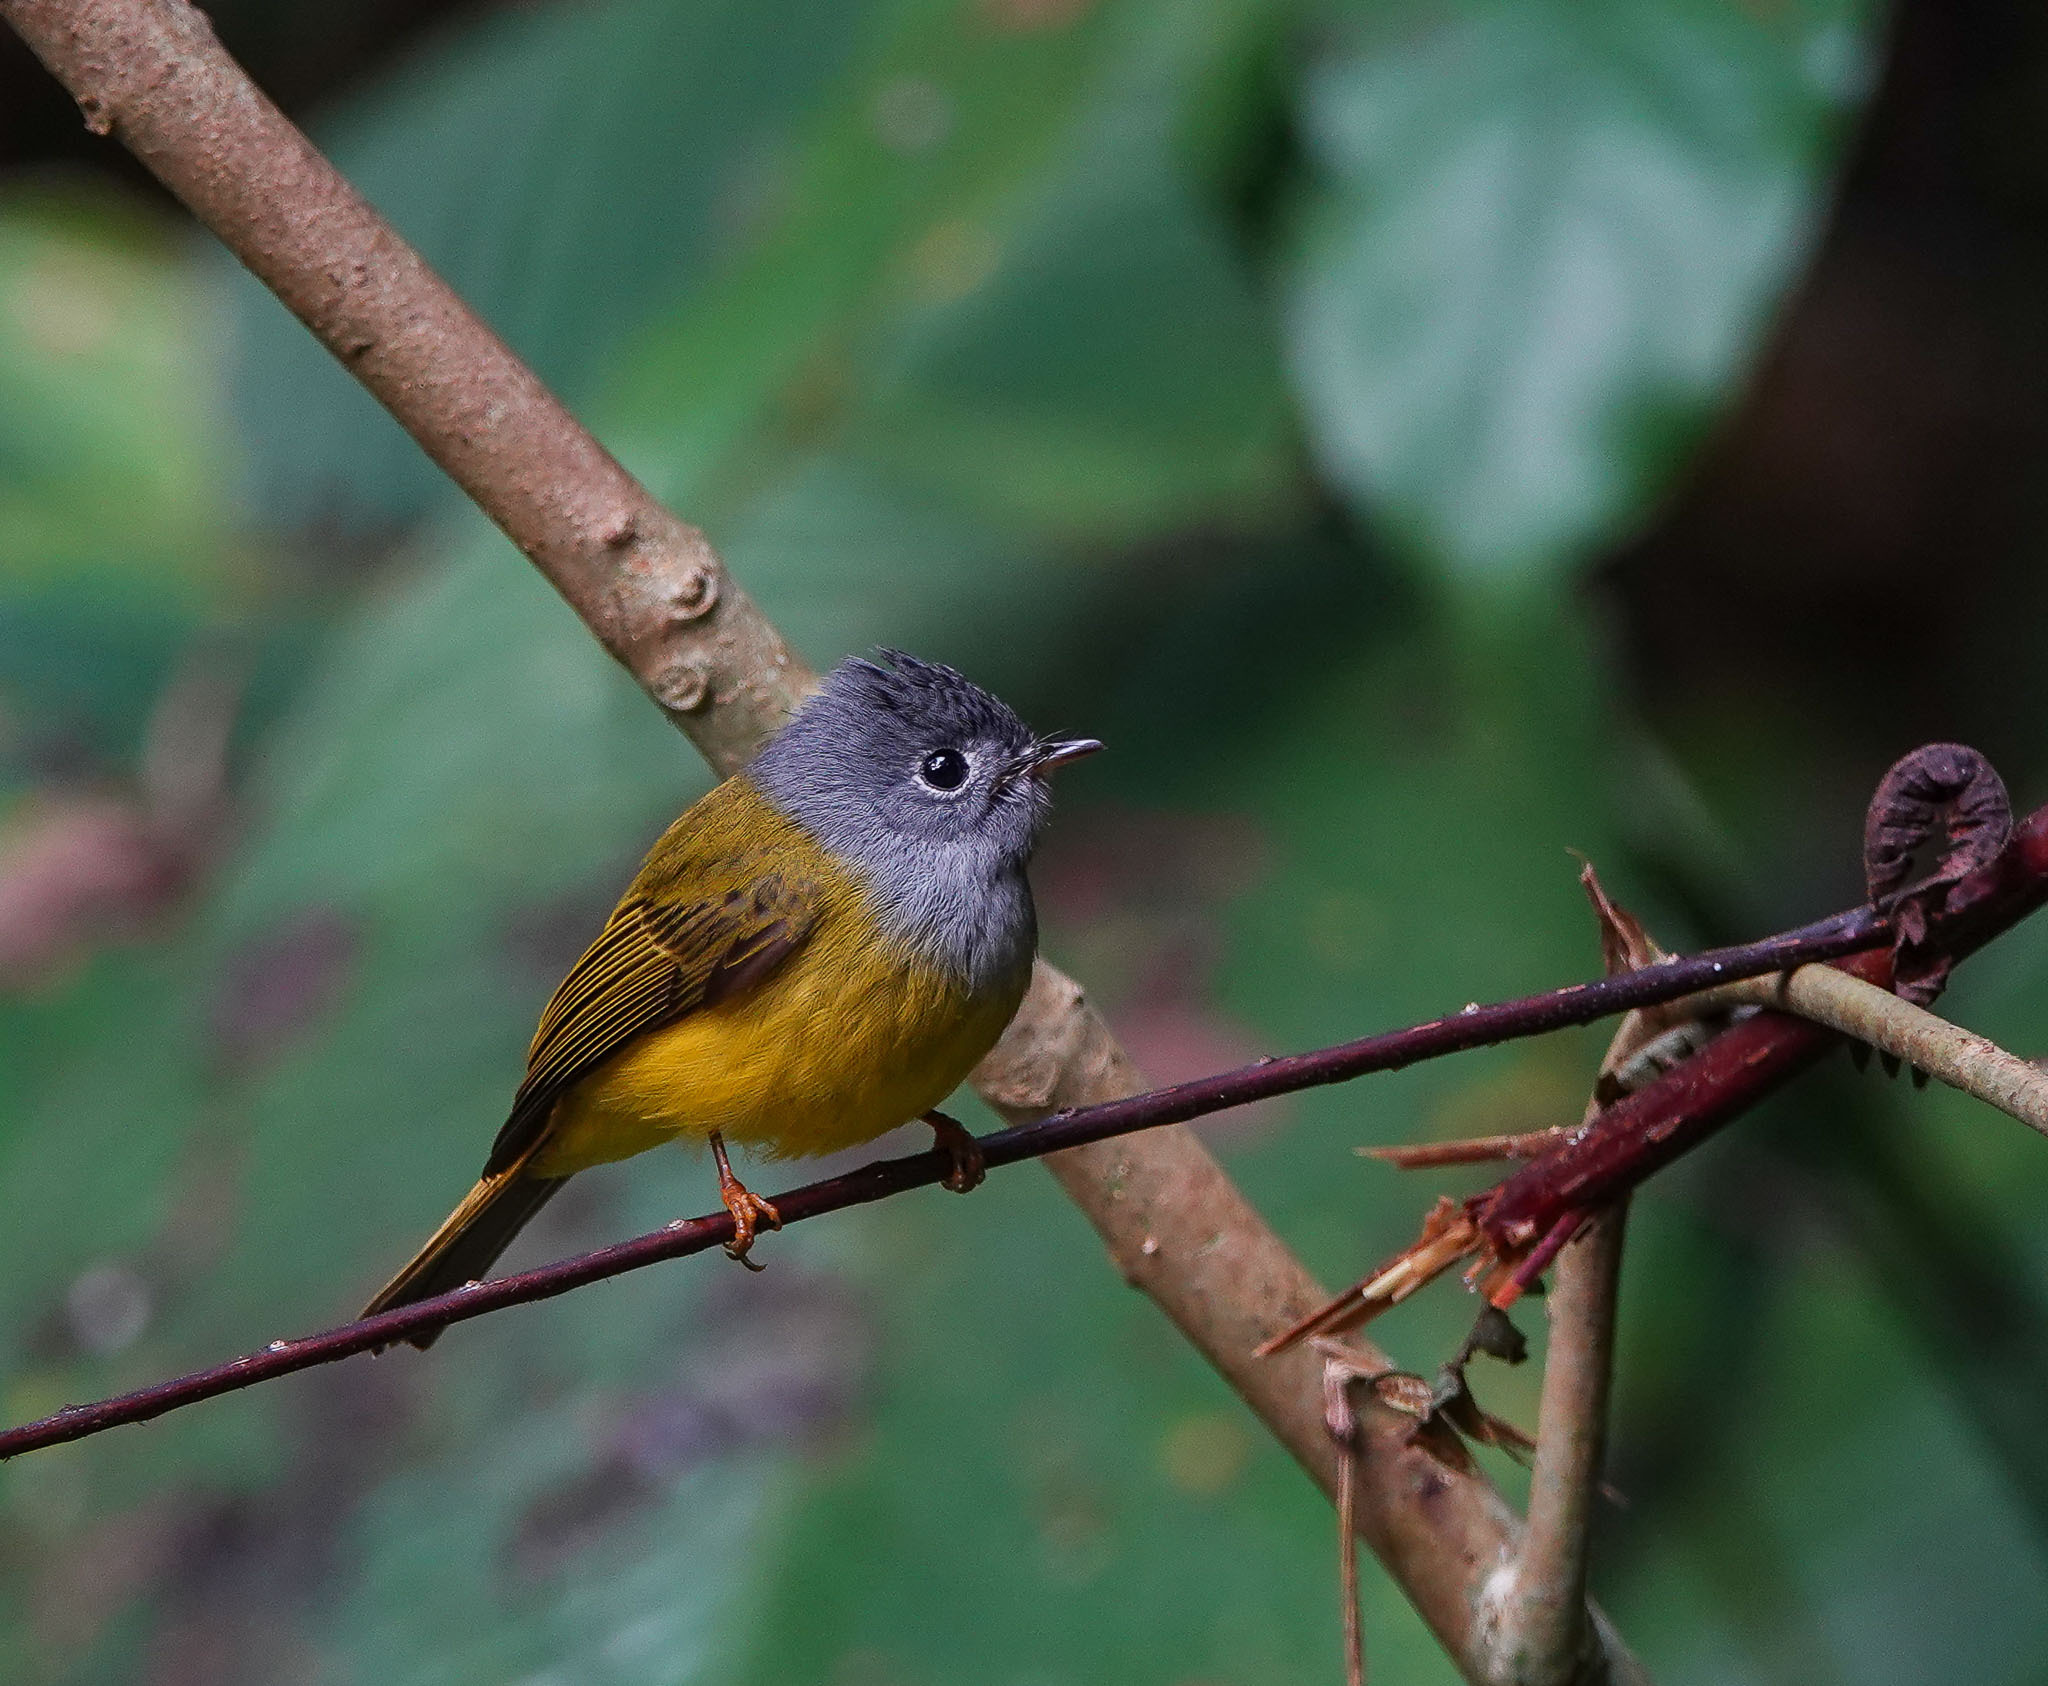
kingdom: Animalia
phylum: Chordata
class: Aves
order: Passeriformes
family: Stenostiridae
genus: Culicicapa
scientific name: Culicicapa ceylonensis
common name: Grey-headed canary-flycatcher
